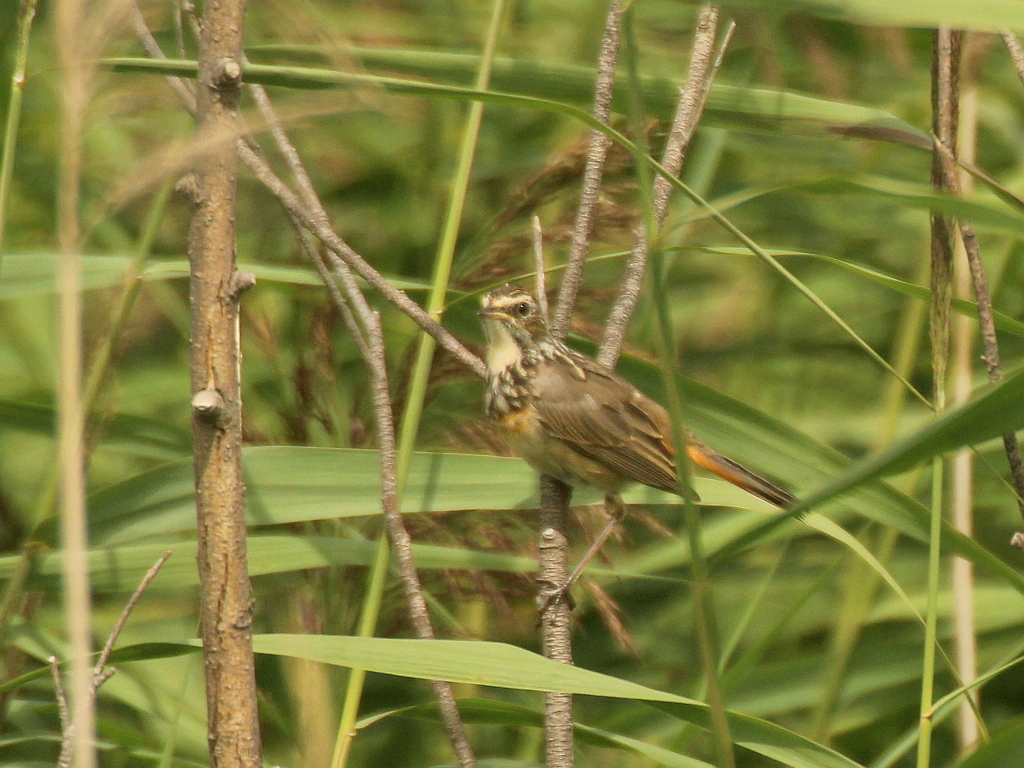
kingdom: Animalia
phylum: Chordata
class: Aves
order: Passeriformes
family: Muscicapidae
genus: Luscinia
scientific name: Luscinia svecica
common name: Bluethroat
